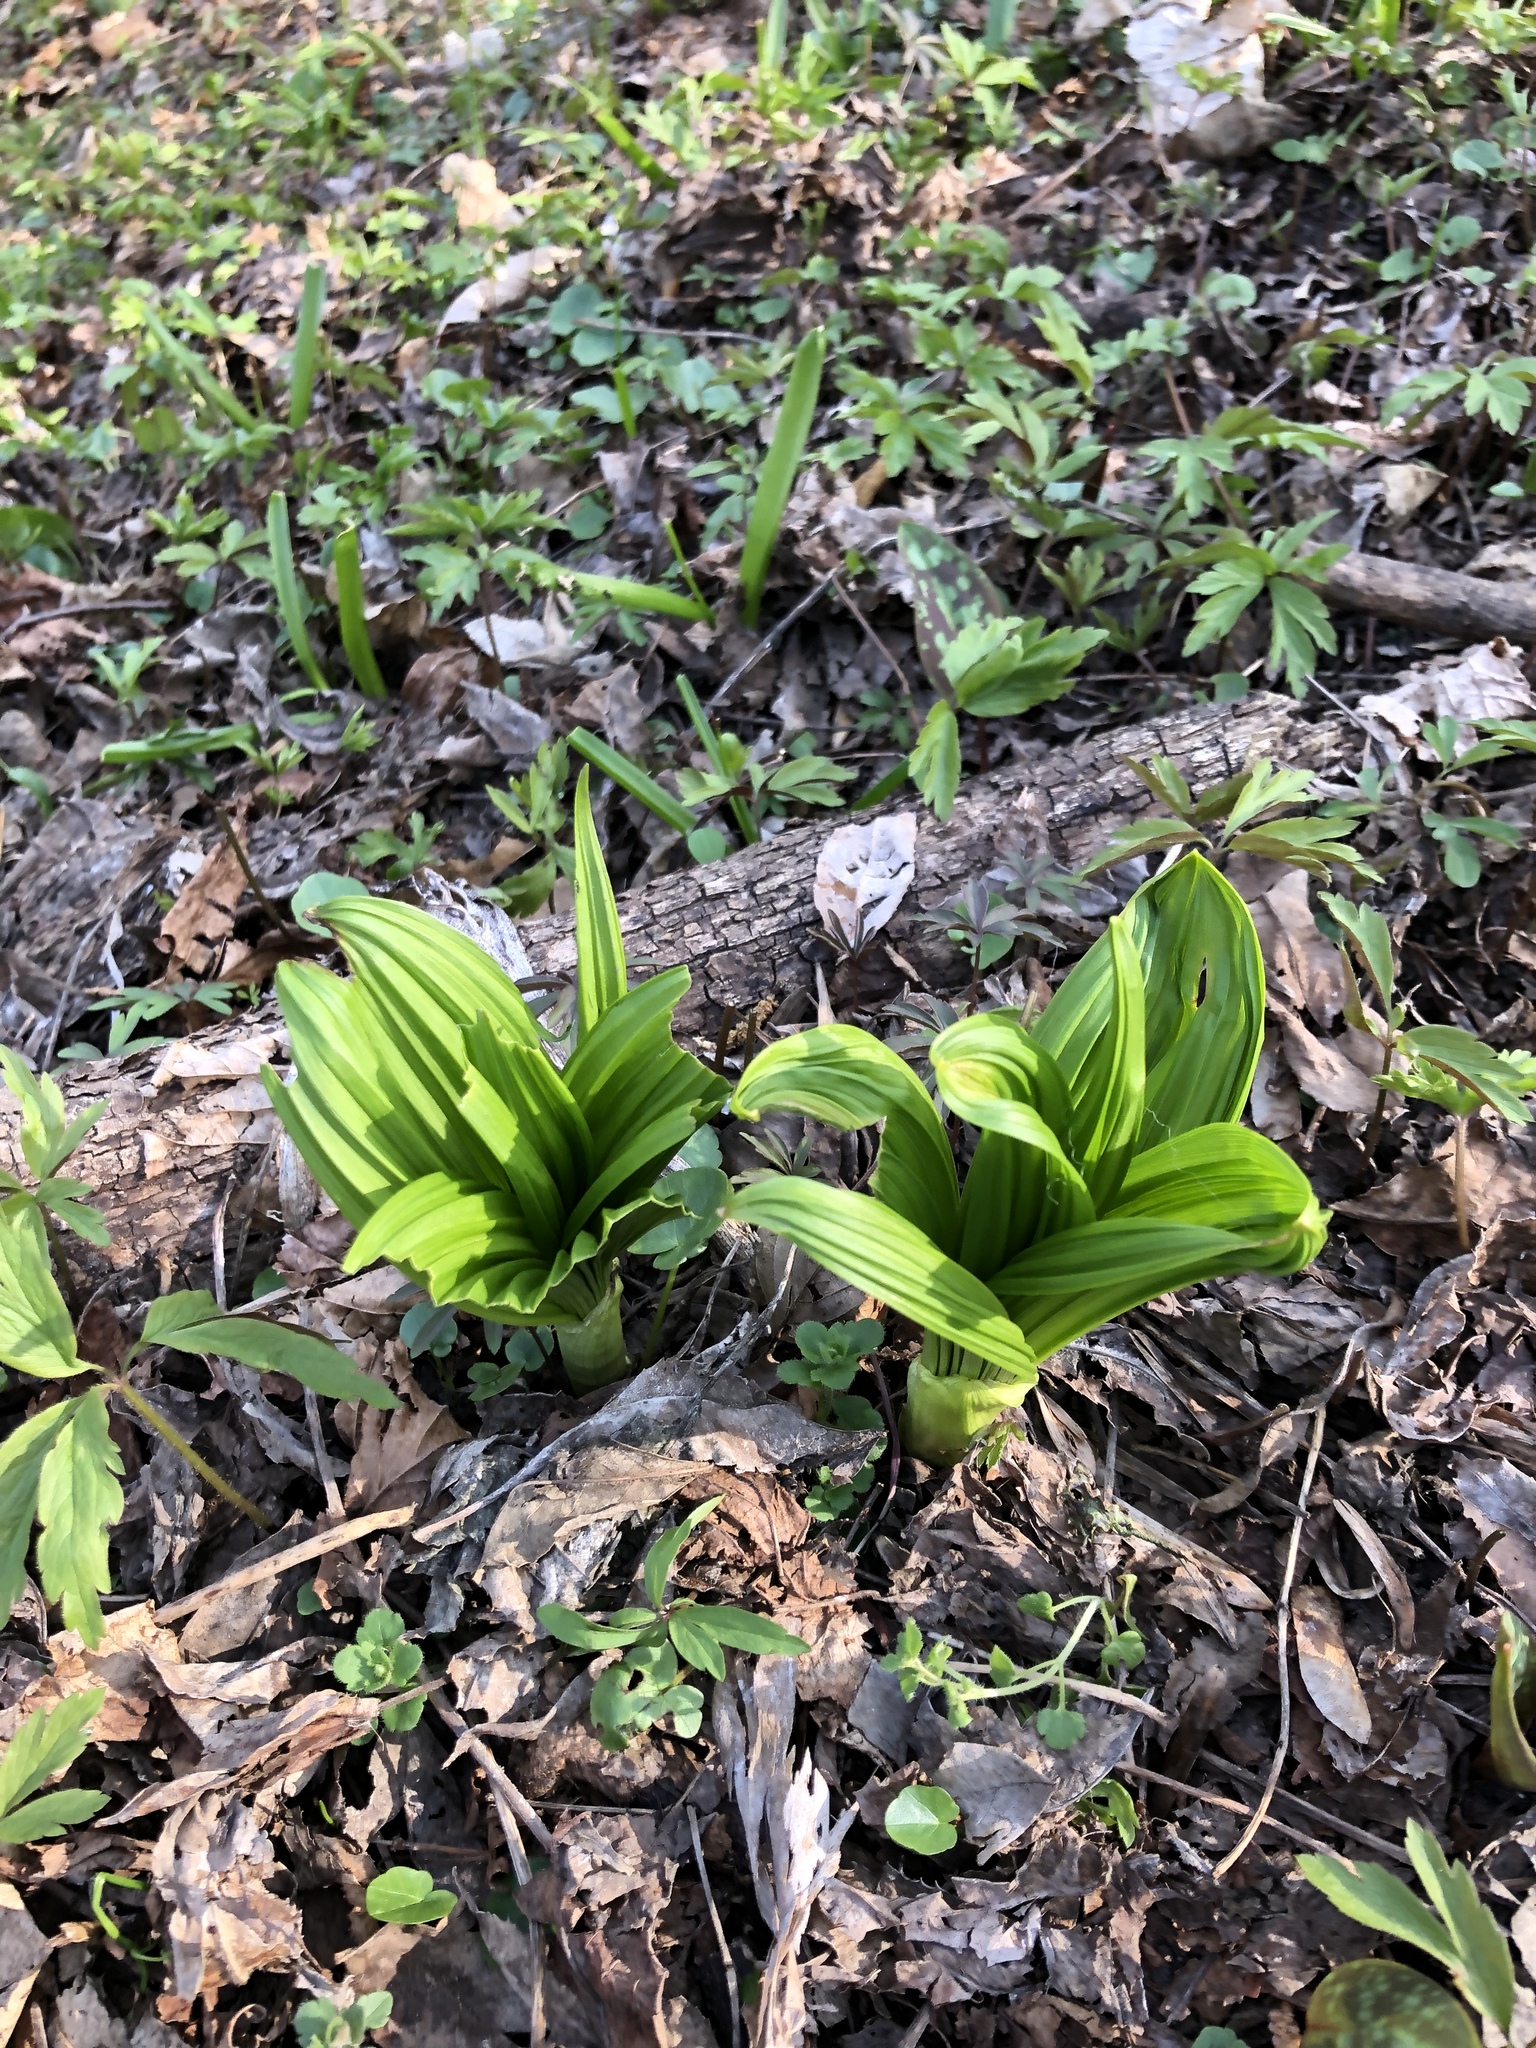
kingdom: Plantae
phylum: Tracheophyta
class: Liliopsida
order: Liliales
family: Melanthiaceae
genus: Veratrum
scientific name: Veratrum nigrum
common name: Black veratrum
